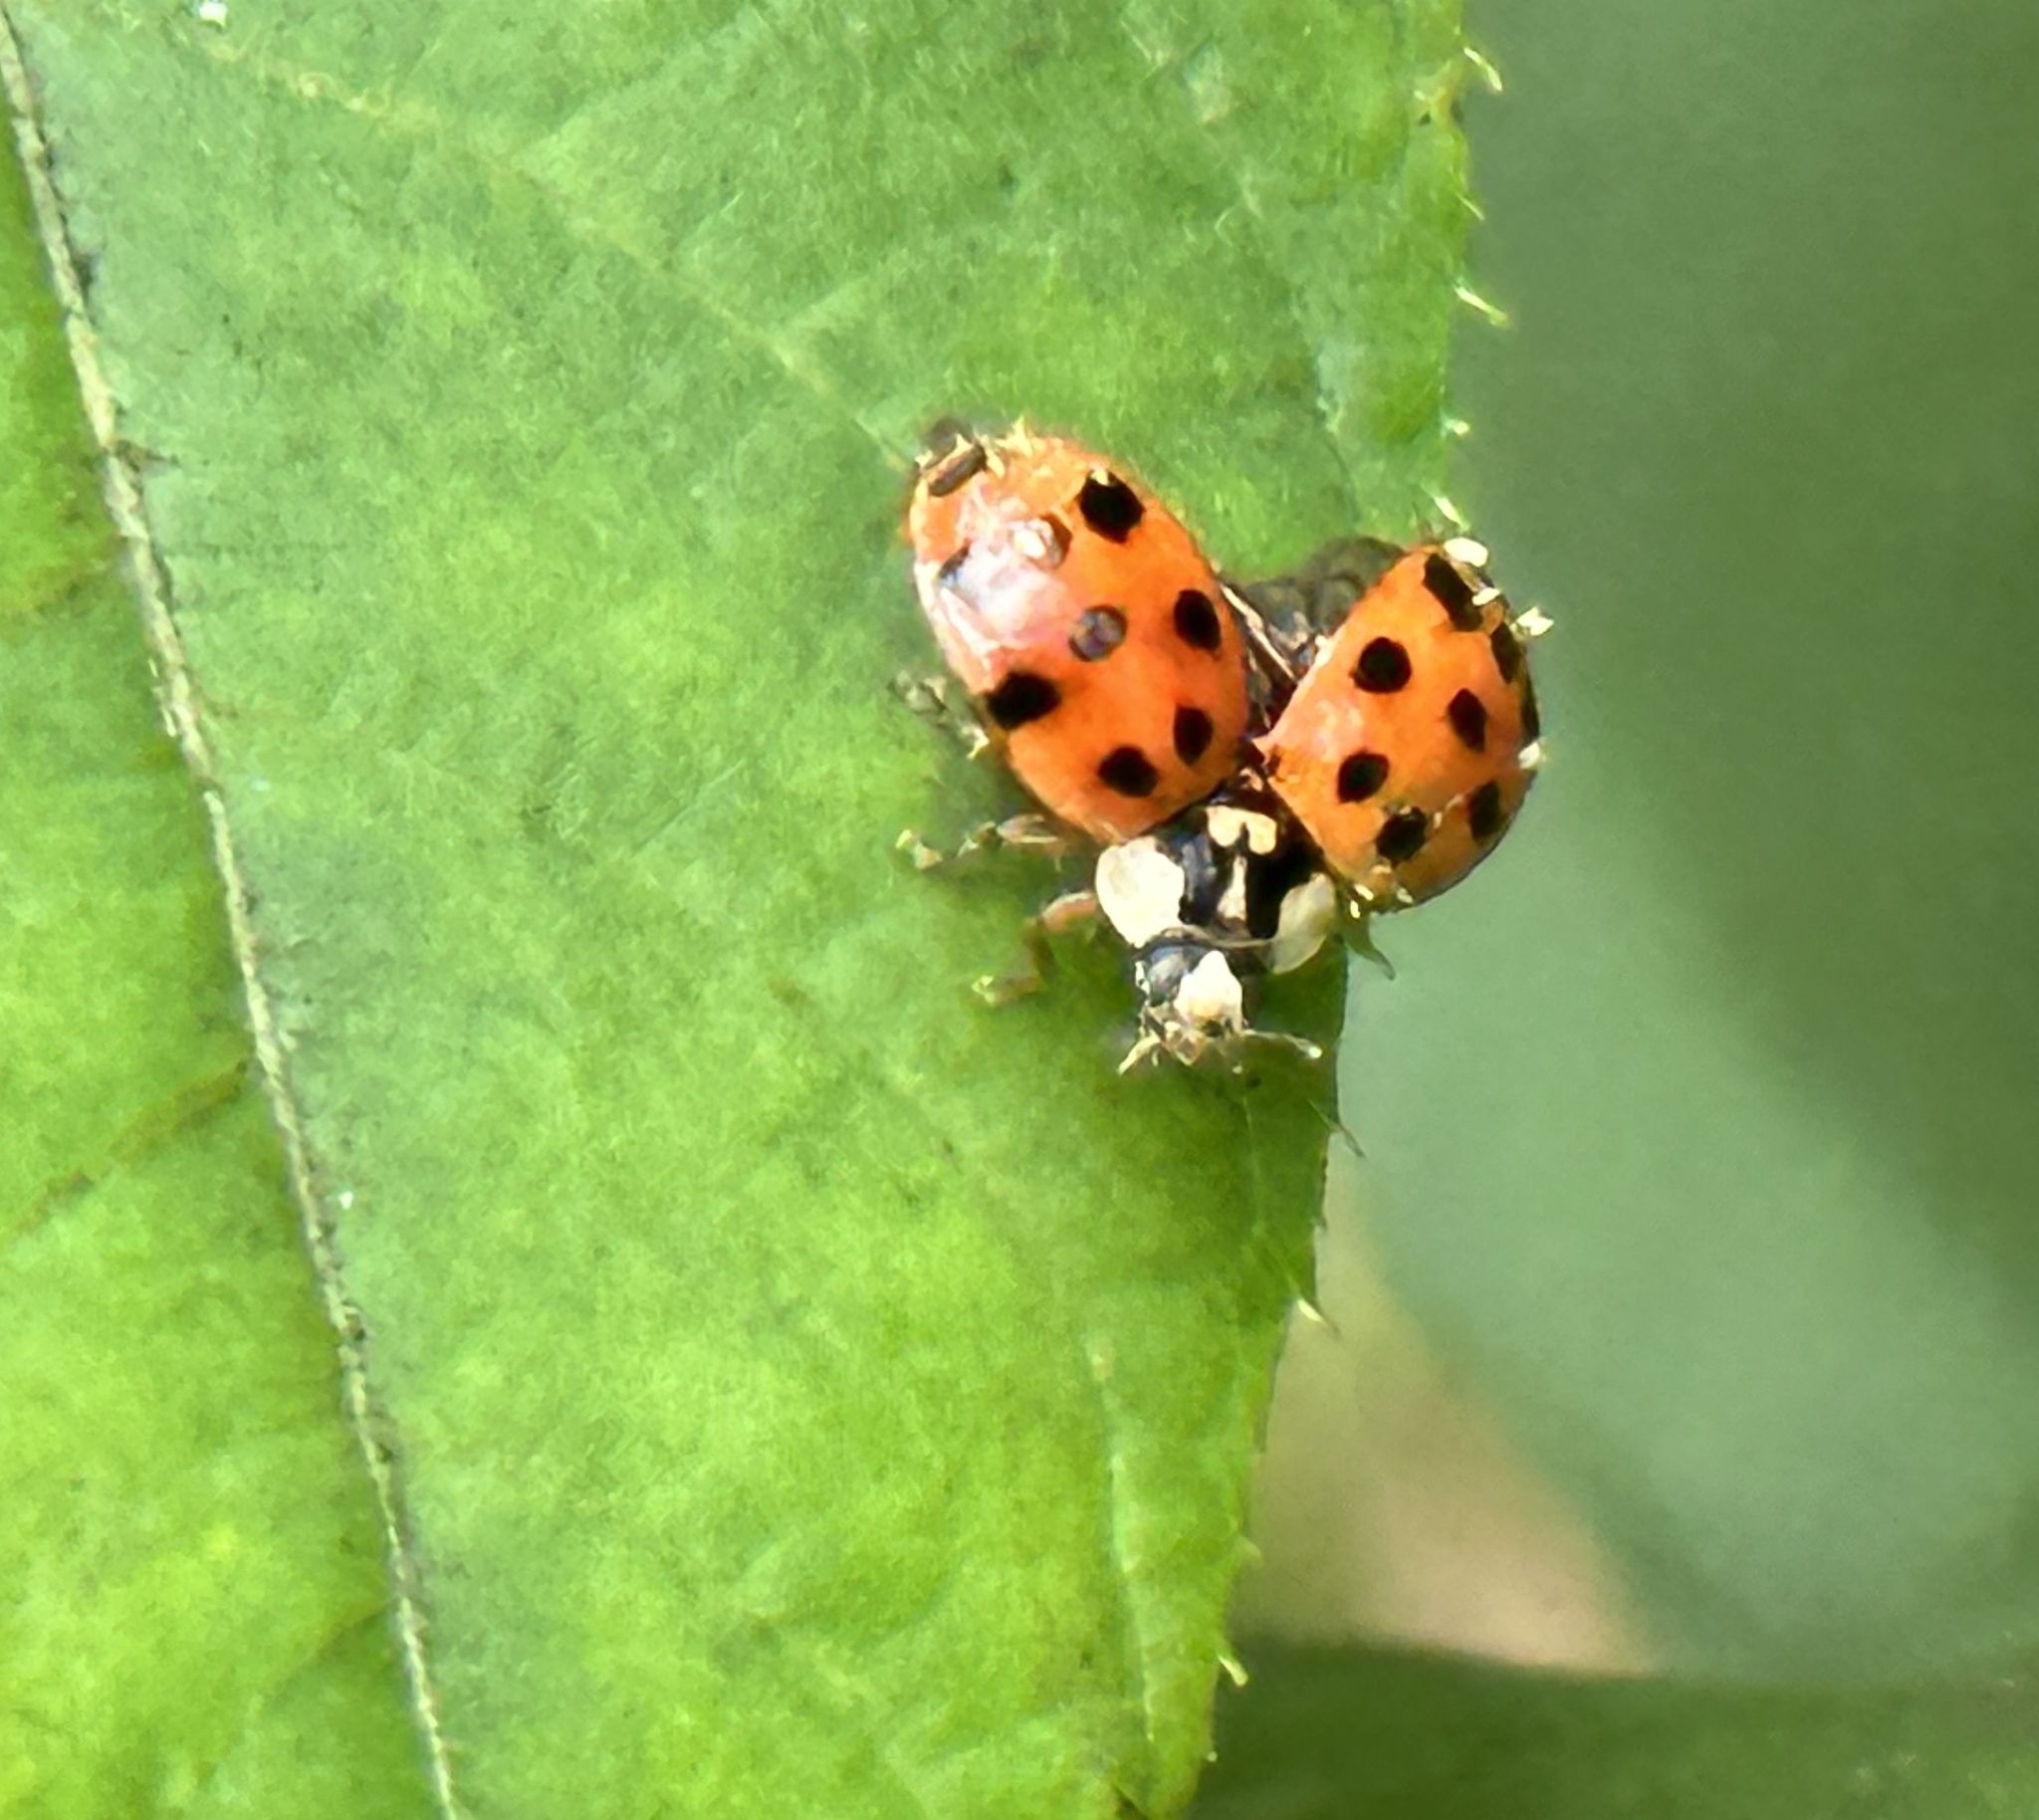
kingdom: Animalia
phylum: Arthropoda
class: Insecta
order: Coleoptera
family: Coccinellidae
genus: Harmonia
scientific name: Harmonia axyridis
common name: Harlequin ladybird
